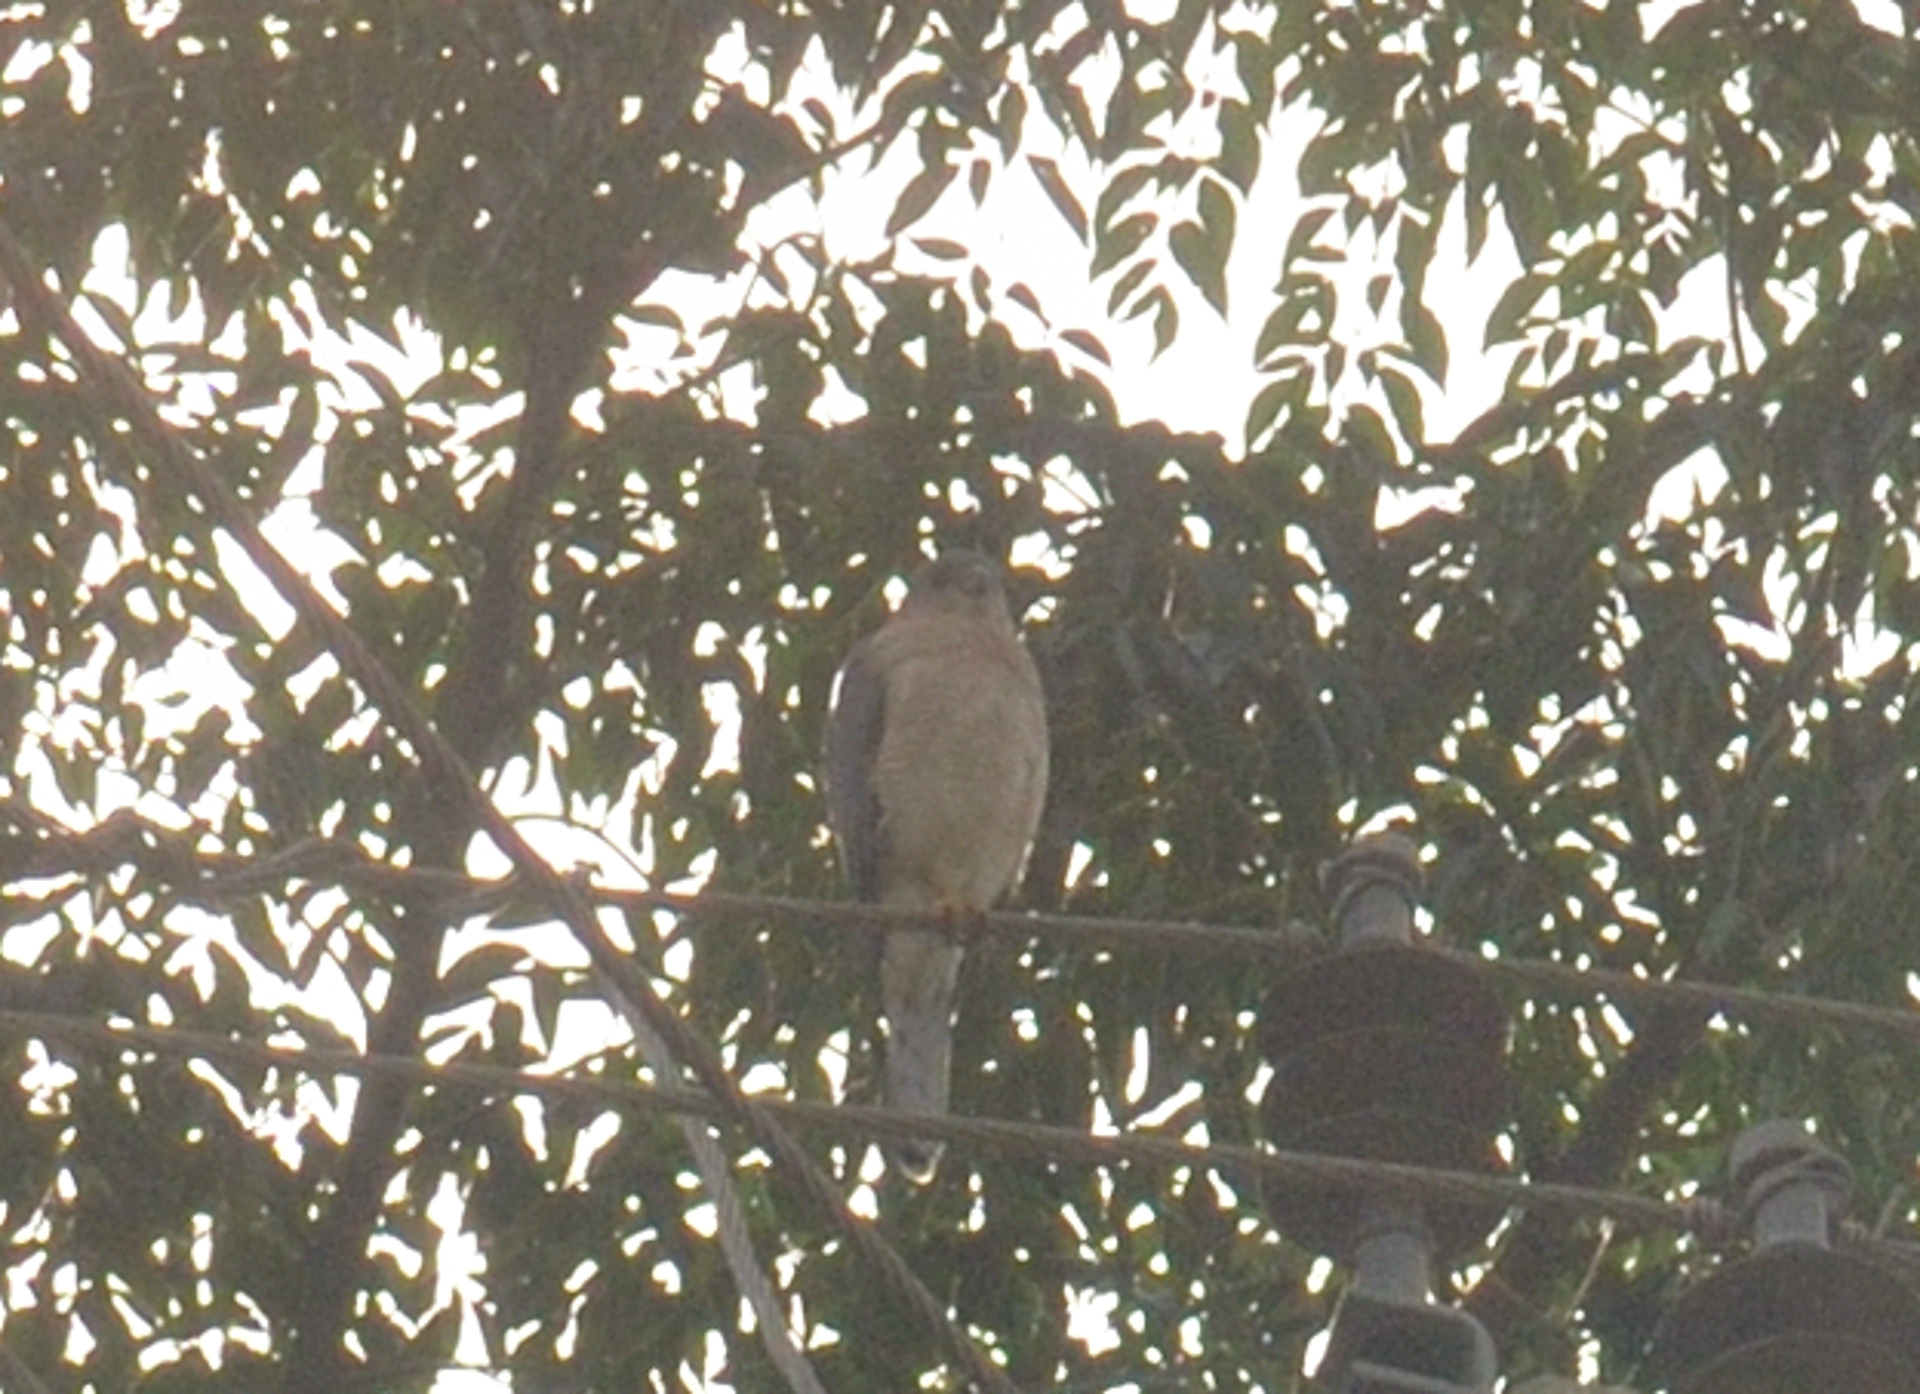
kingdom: Animalia
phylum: Chordata
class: Aves
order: Accipitriformes
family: Accipitridae
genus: Accipiter
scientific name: Accipiter badius
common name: Shikra
